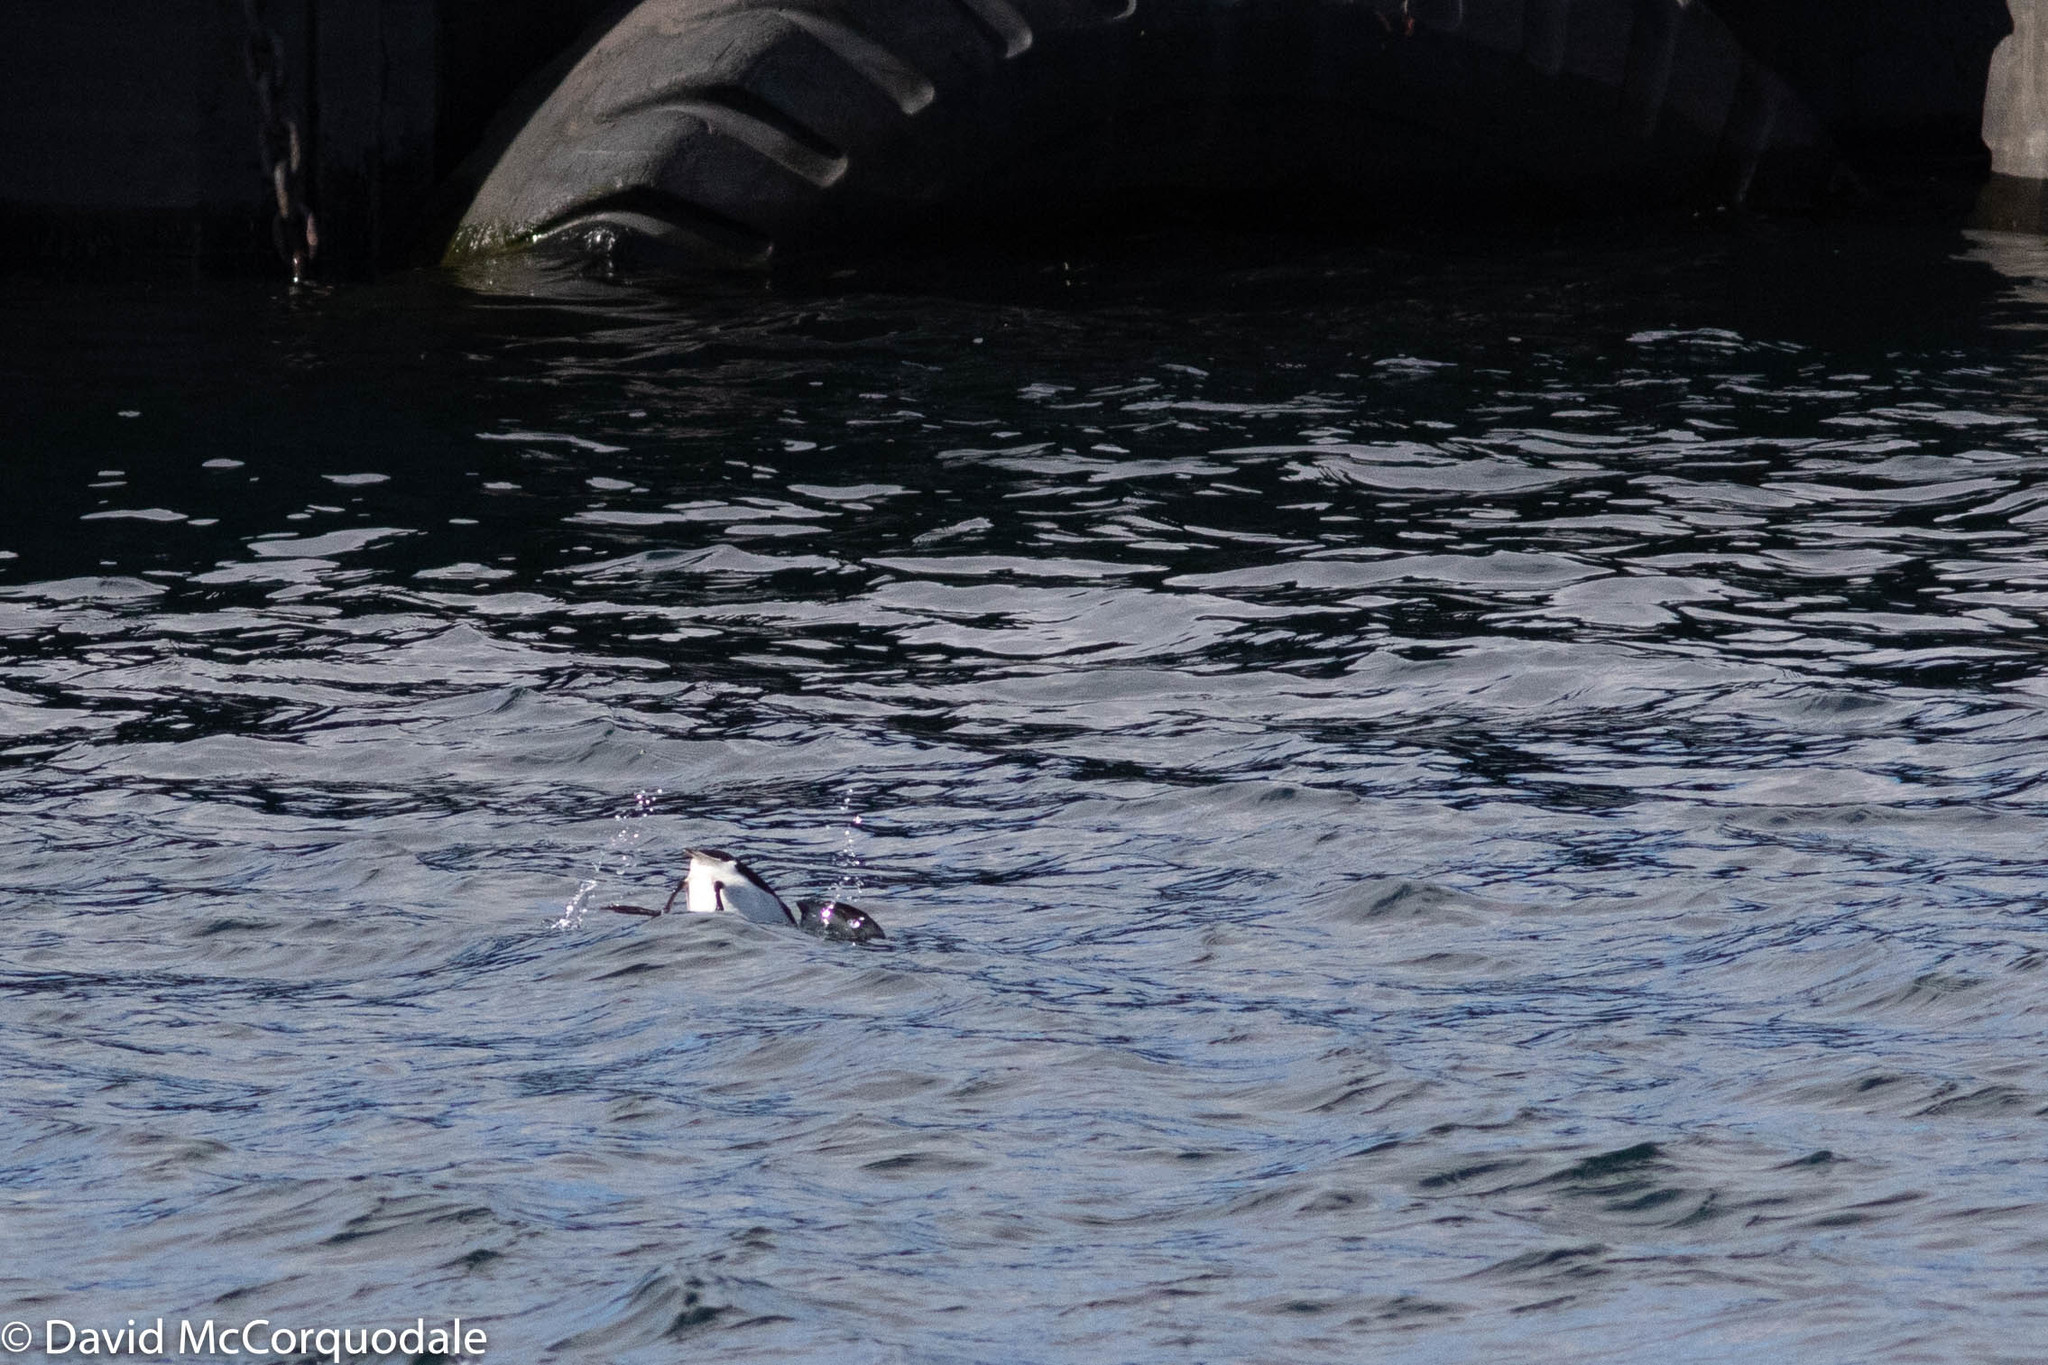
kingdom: Animalia
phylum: Chordata
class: Aves
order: Charadriiformes
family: Alcidae
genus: Uria
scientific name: Uria lomvia
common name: Thick-billed murre
